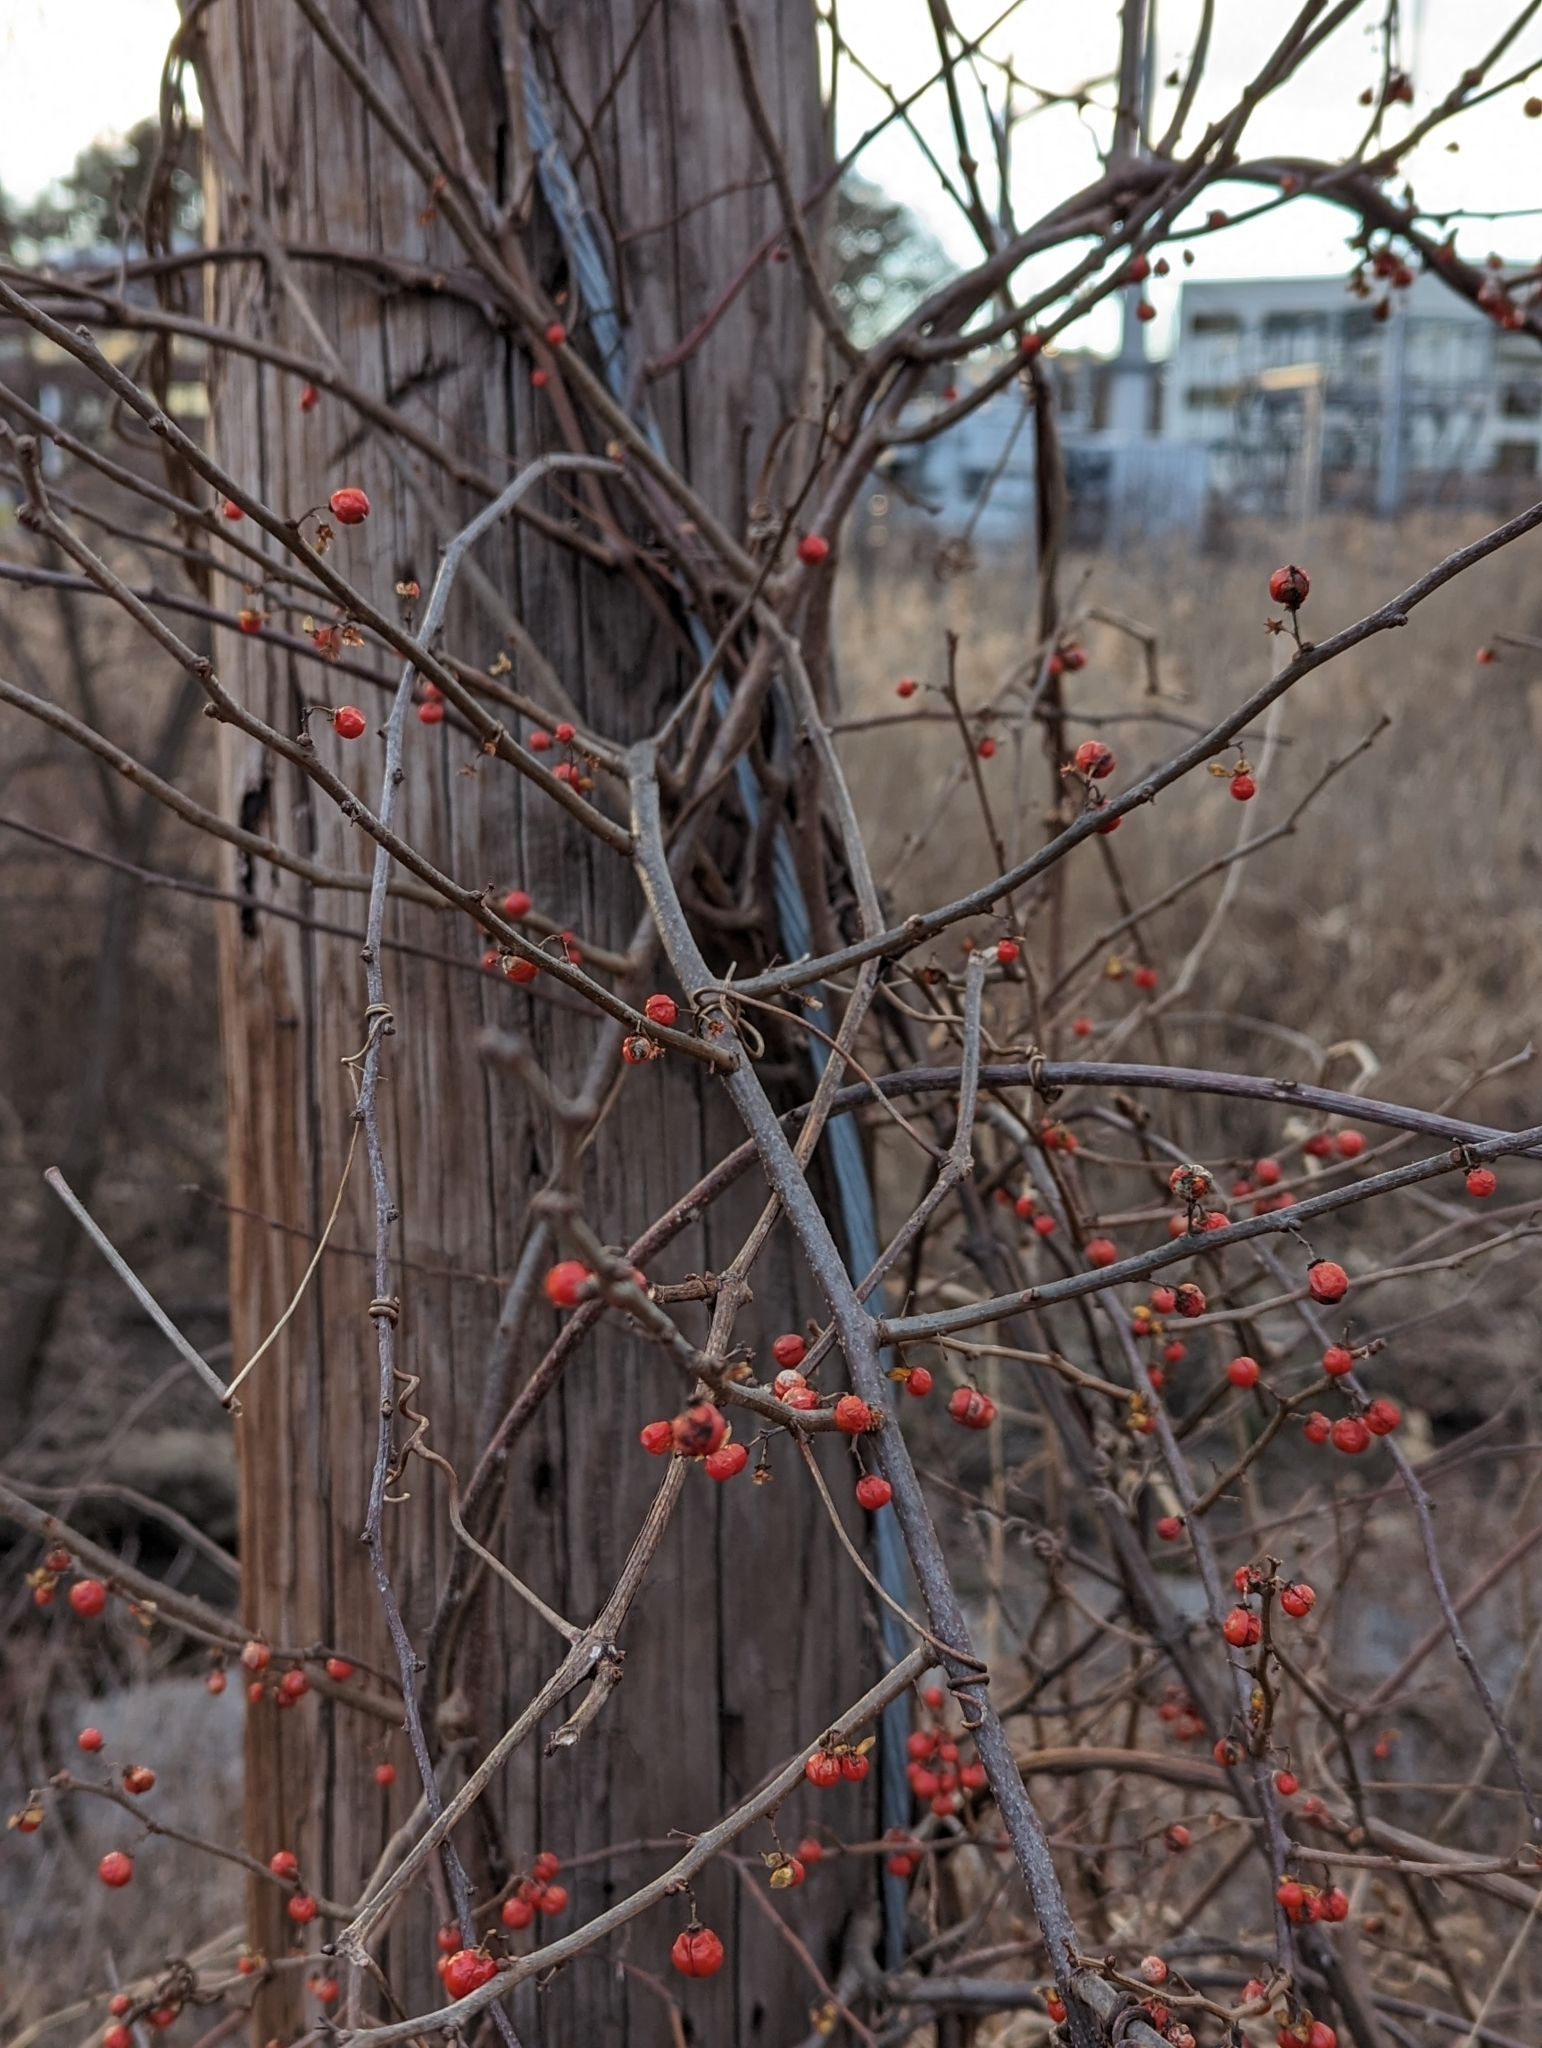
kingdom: Plantae
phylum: Tracheophyta
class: Magnoliopsida
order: Celastrales
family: Celastraceae
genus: Celastrus
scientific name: Celastrus orbiculatus
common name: Oriental bittersweet
